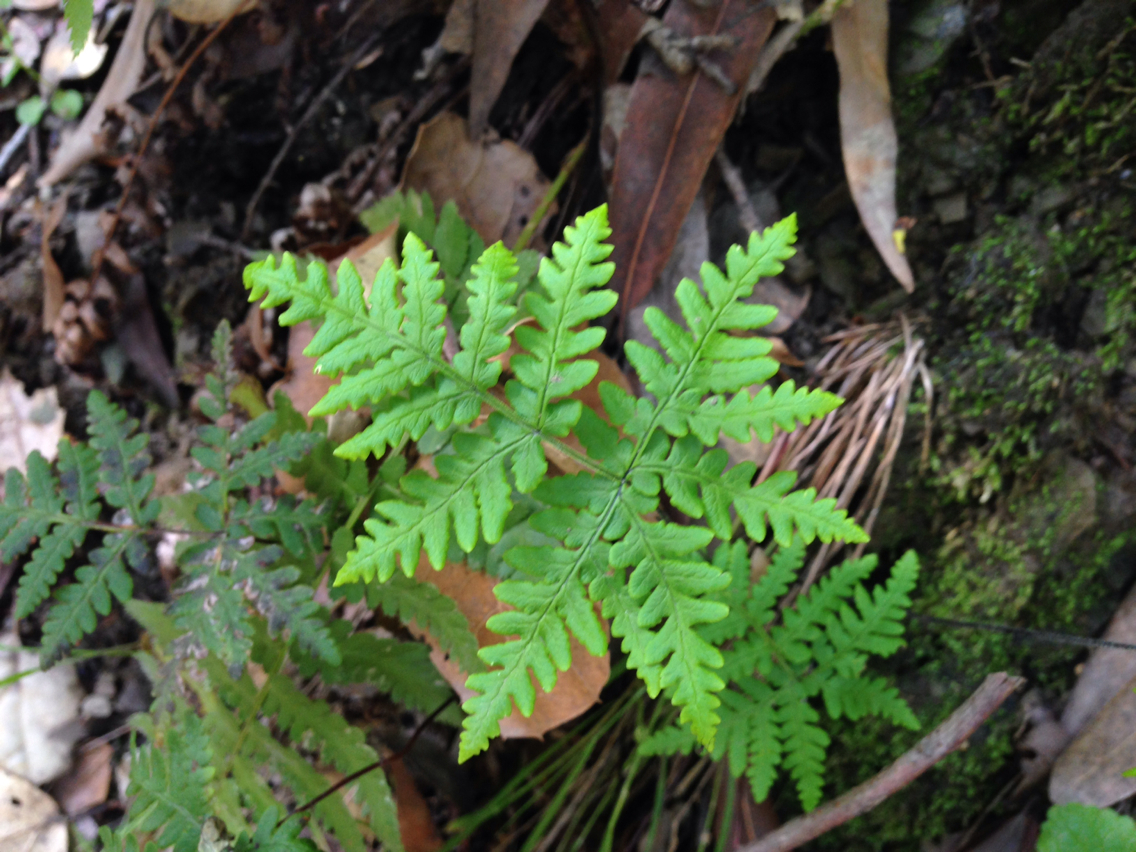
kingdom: Plantae
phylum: Tracheophyta
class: Polypodiopsida
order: Polypodiales
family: Pteridaceae
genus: Pentagramma
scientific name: Pentagramma triangularis
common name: Gold fern
